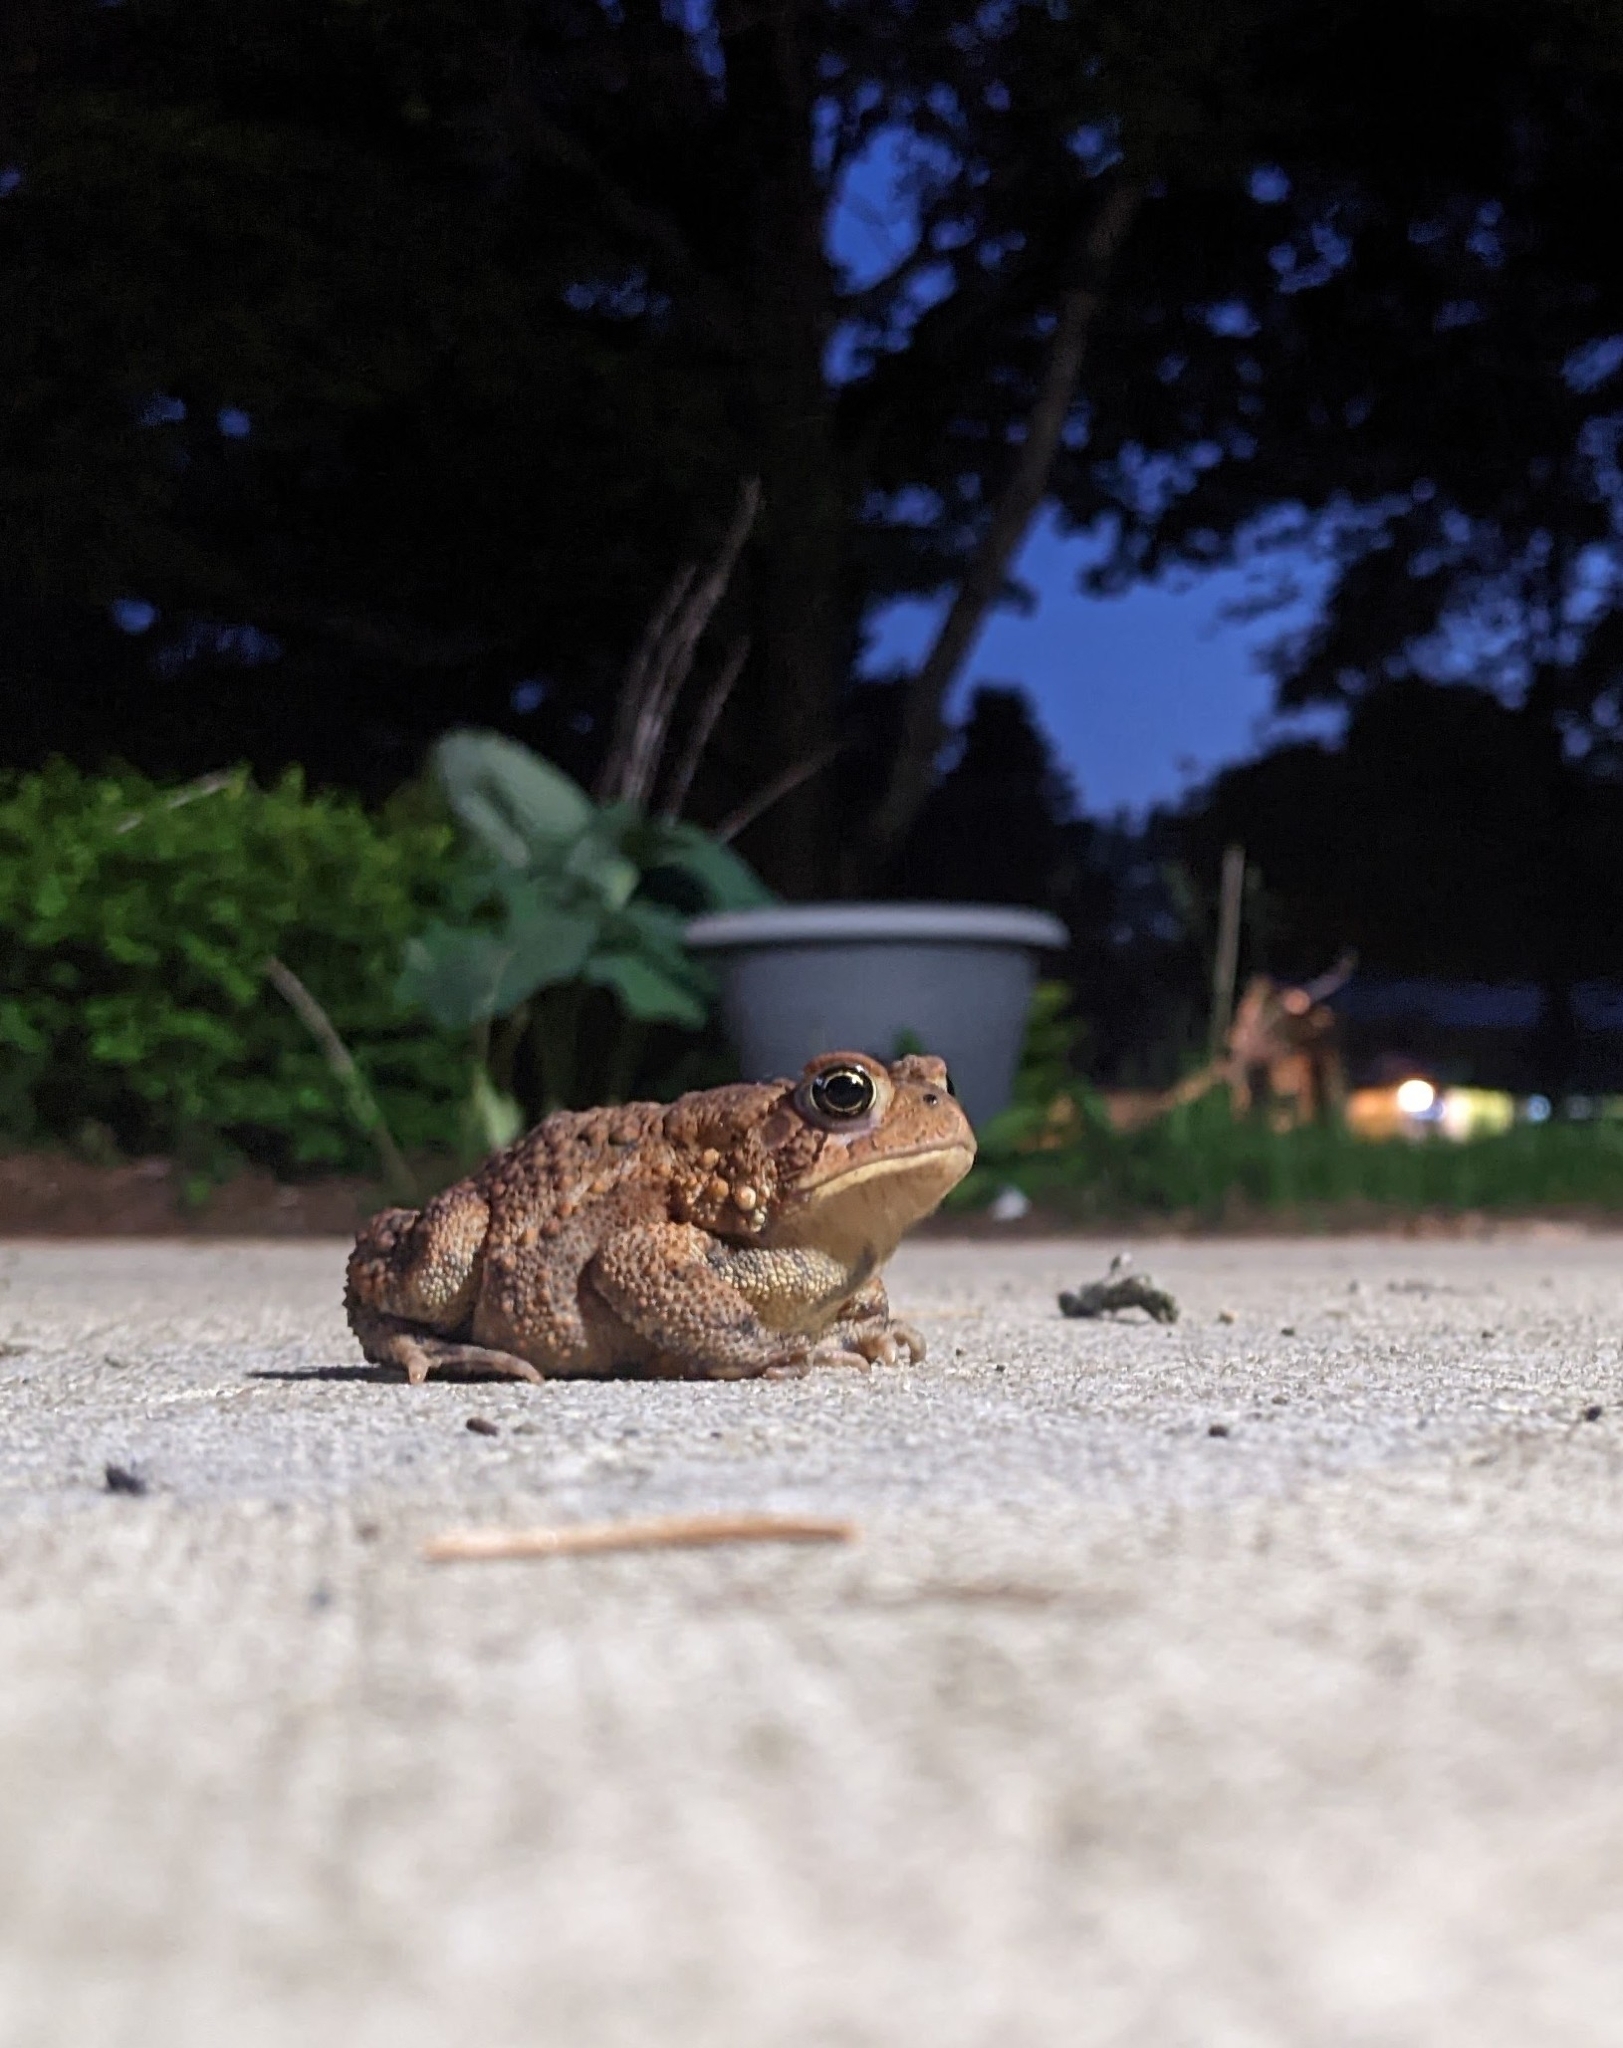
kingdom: Animalia
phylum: Chordata
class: Amphibia
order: Anura
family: Bufonidae
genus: Anaxyrus
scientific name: Anaxyrus americanus
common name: American toad
